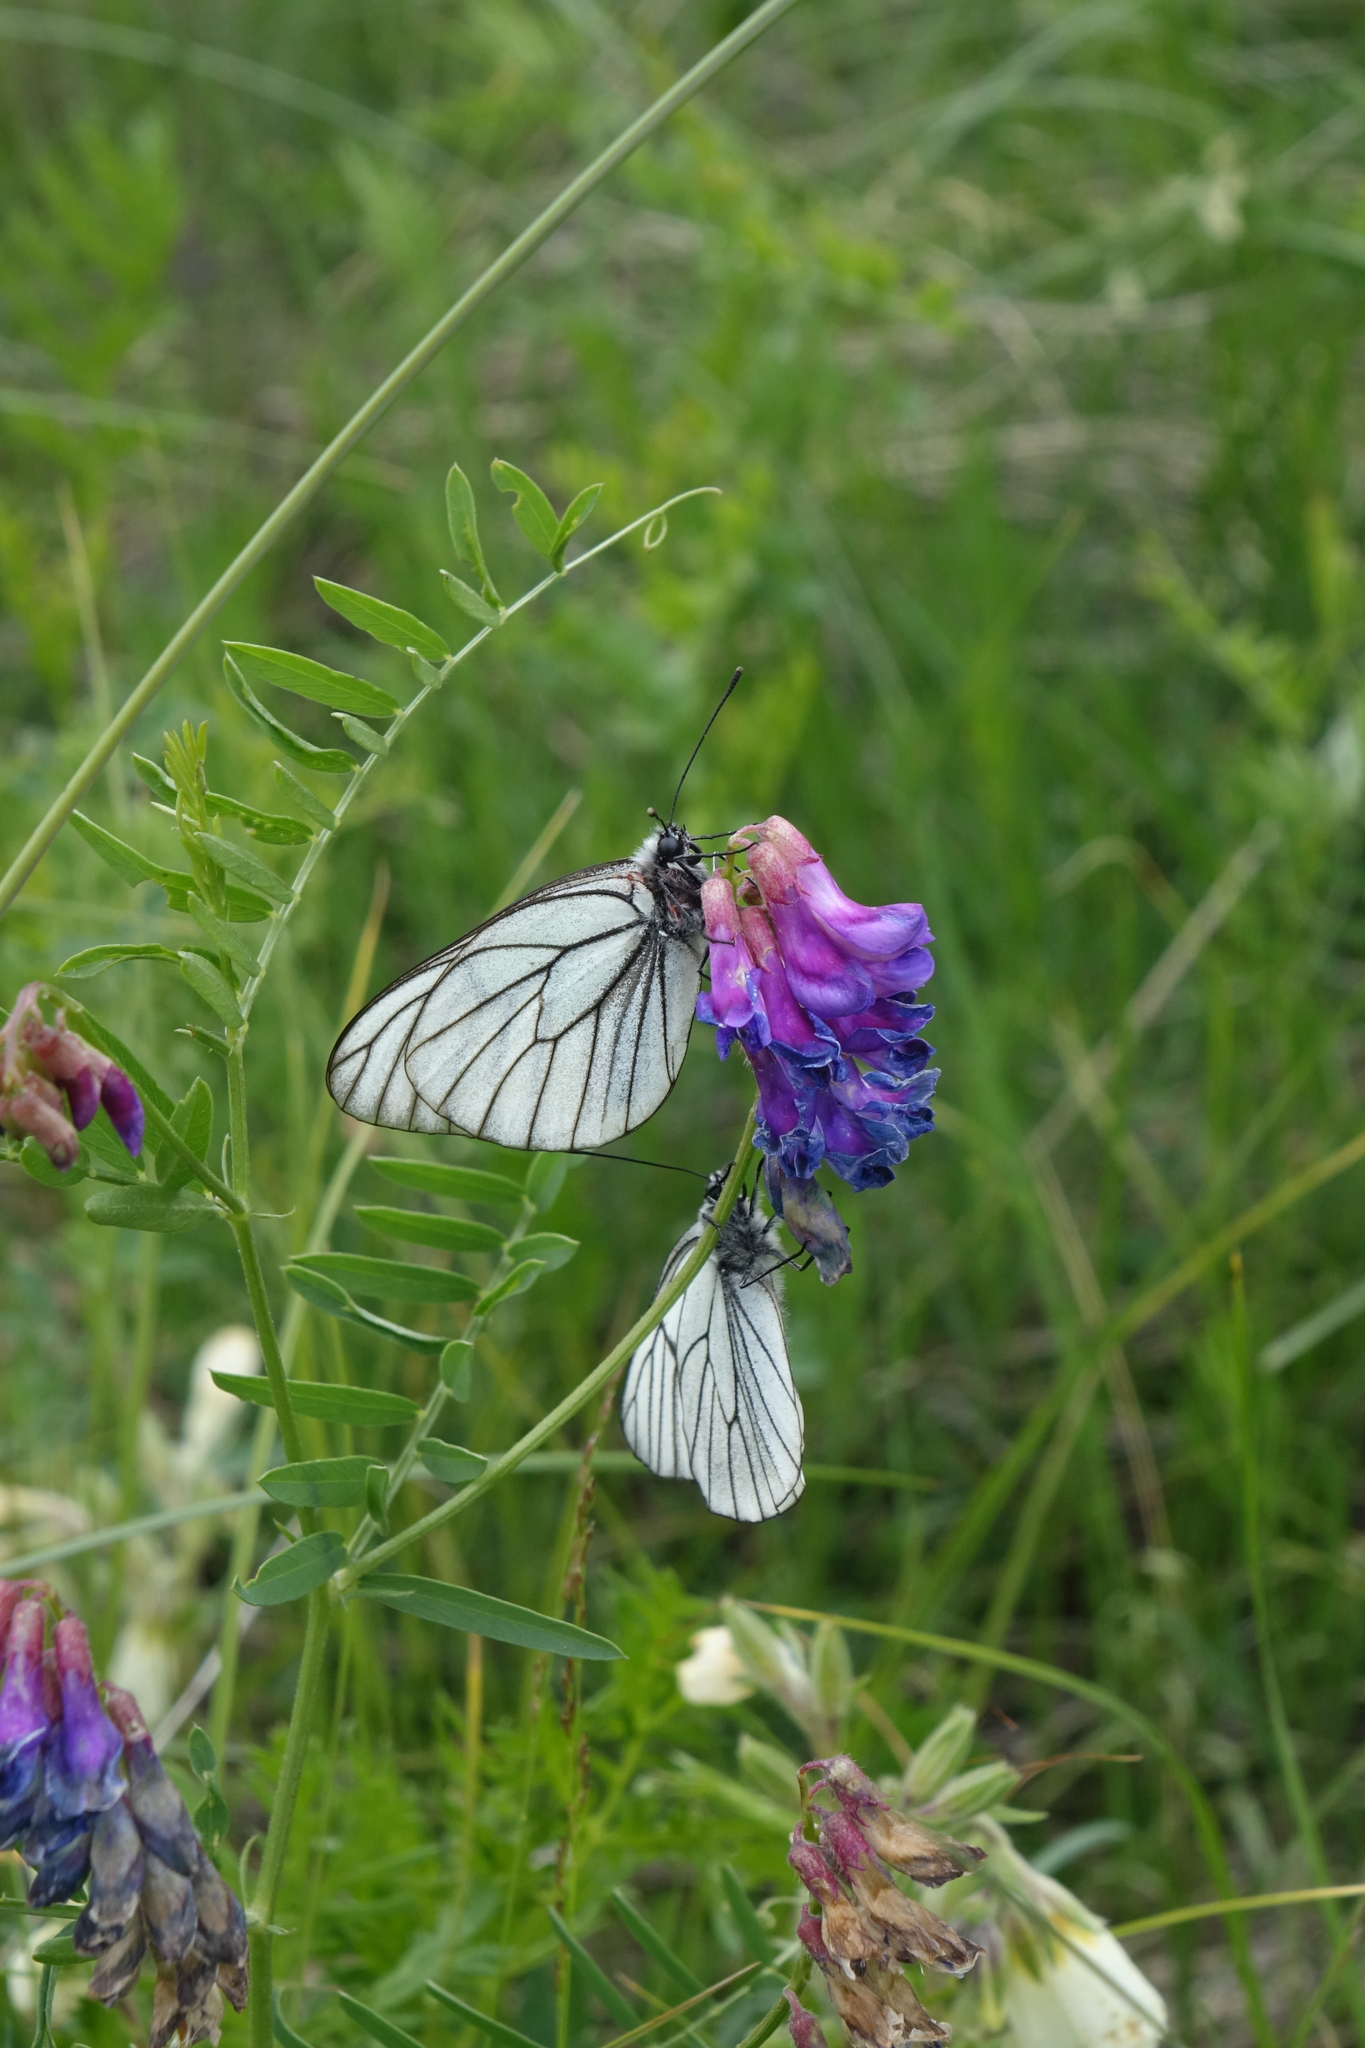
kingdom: Animalia
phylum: Arthropoda
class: Insecta
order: Lepidoptera
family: Pieridae
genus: Aporia
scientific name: Aporia crataegi
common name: Black-veined white
